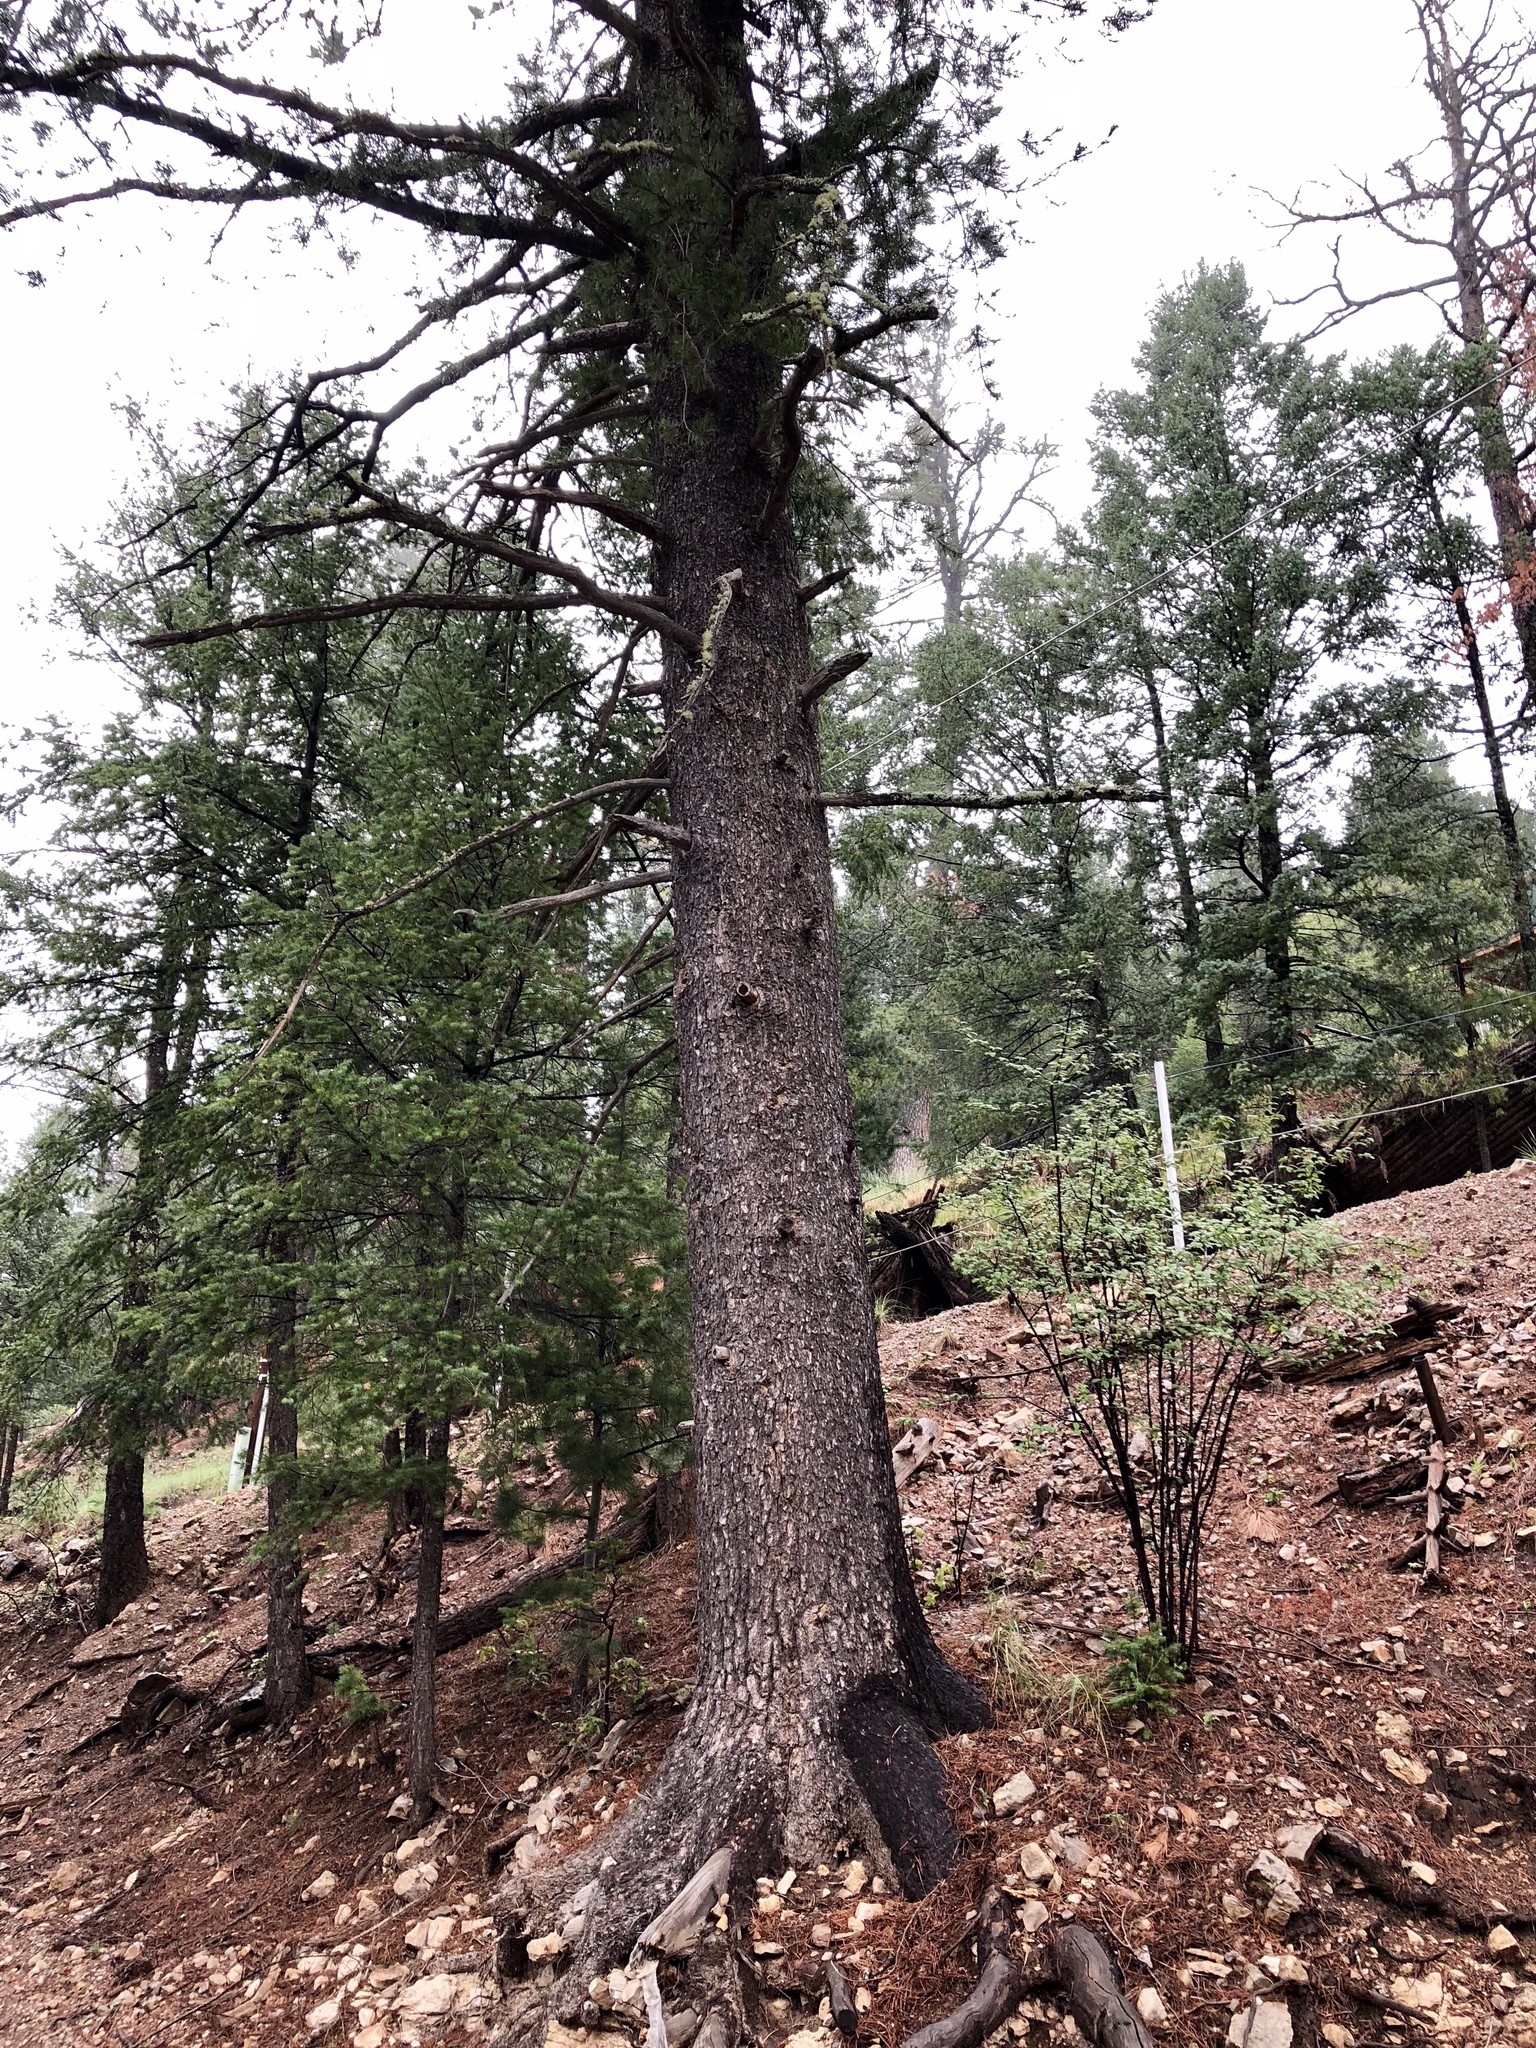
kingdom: Plantae
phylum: Tracheophyta
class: Pinopsida
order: Pinales
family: Pinaceae
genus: Pinus
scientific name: Pinus strobiformis
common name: Southwestern white pine
